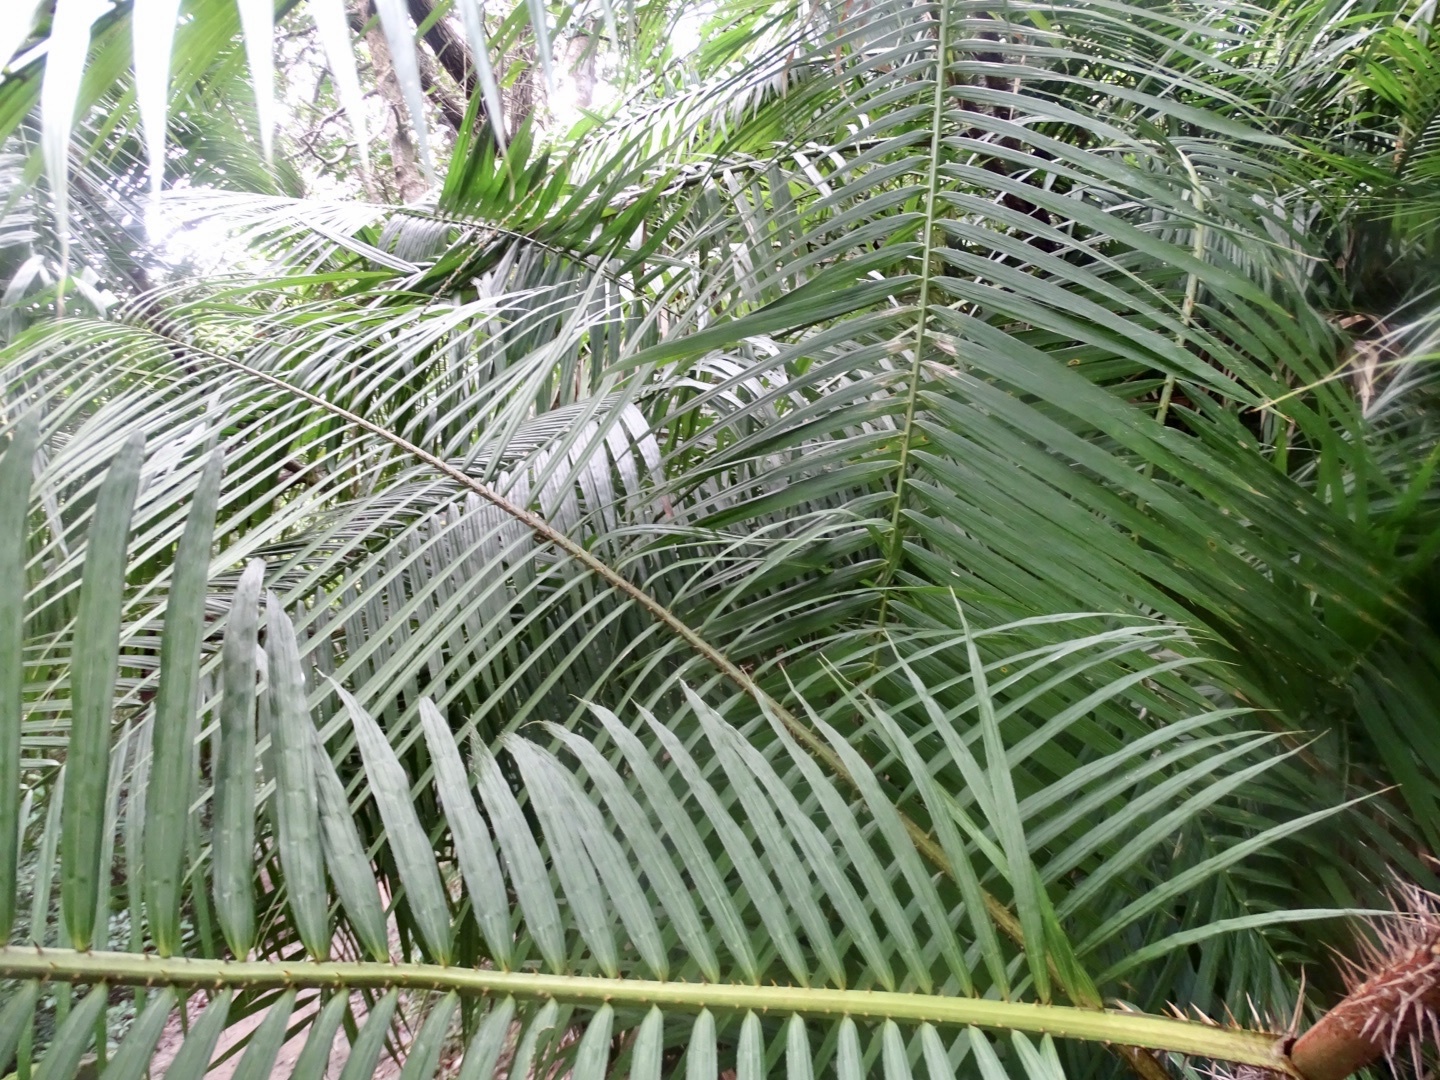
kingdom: Plantae
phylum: Tracheophyta
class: Liliopsida
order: Arecales
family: Arecaceae
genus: Calamus
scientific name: Calamus melanochaetes
